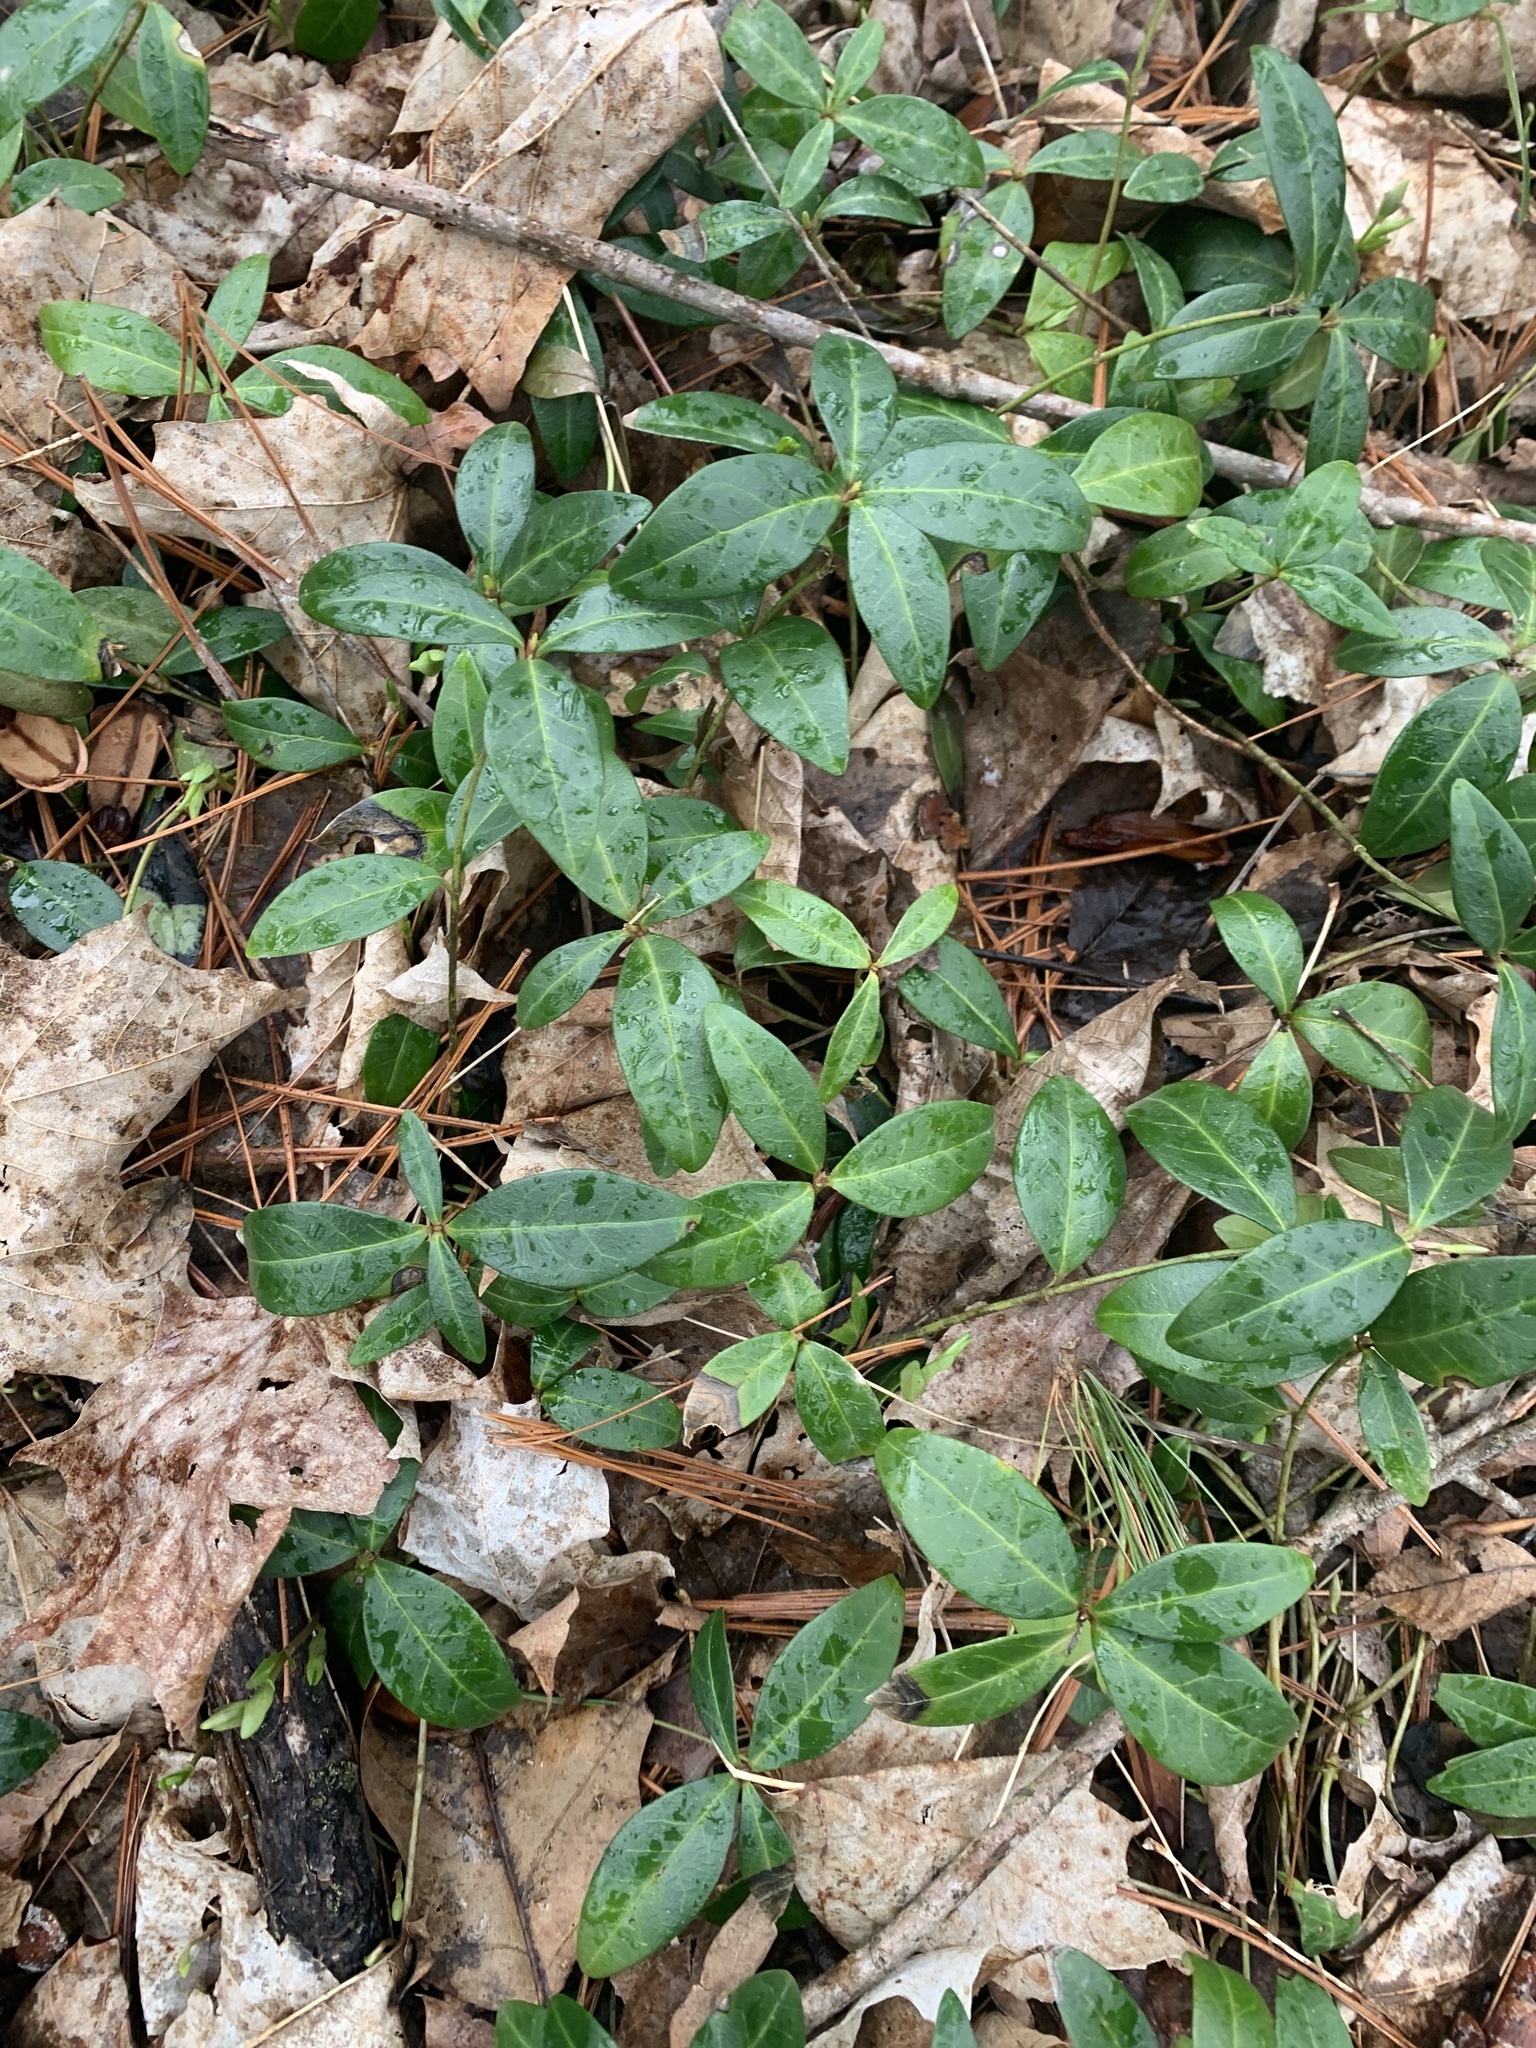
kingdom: Plantae
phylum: Tracheophyta
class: Magnoliopsida
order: Gentianales
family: Apocynaceae
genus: Vinca
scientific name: Vinca minor
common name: Lesser periwinkle
